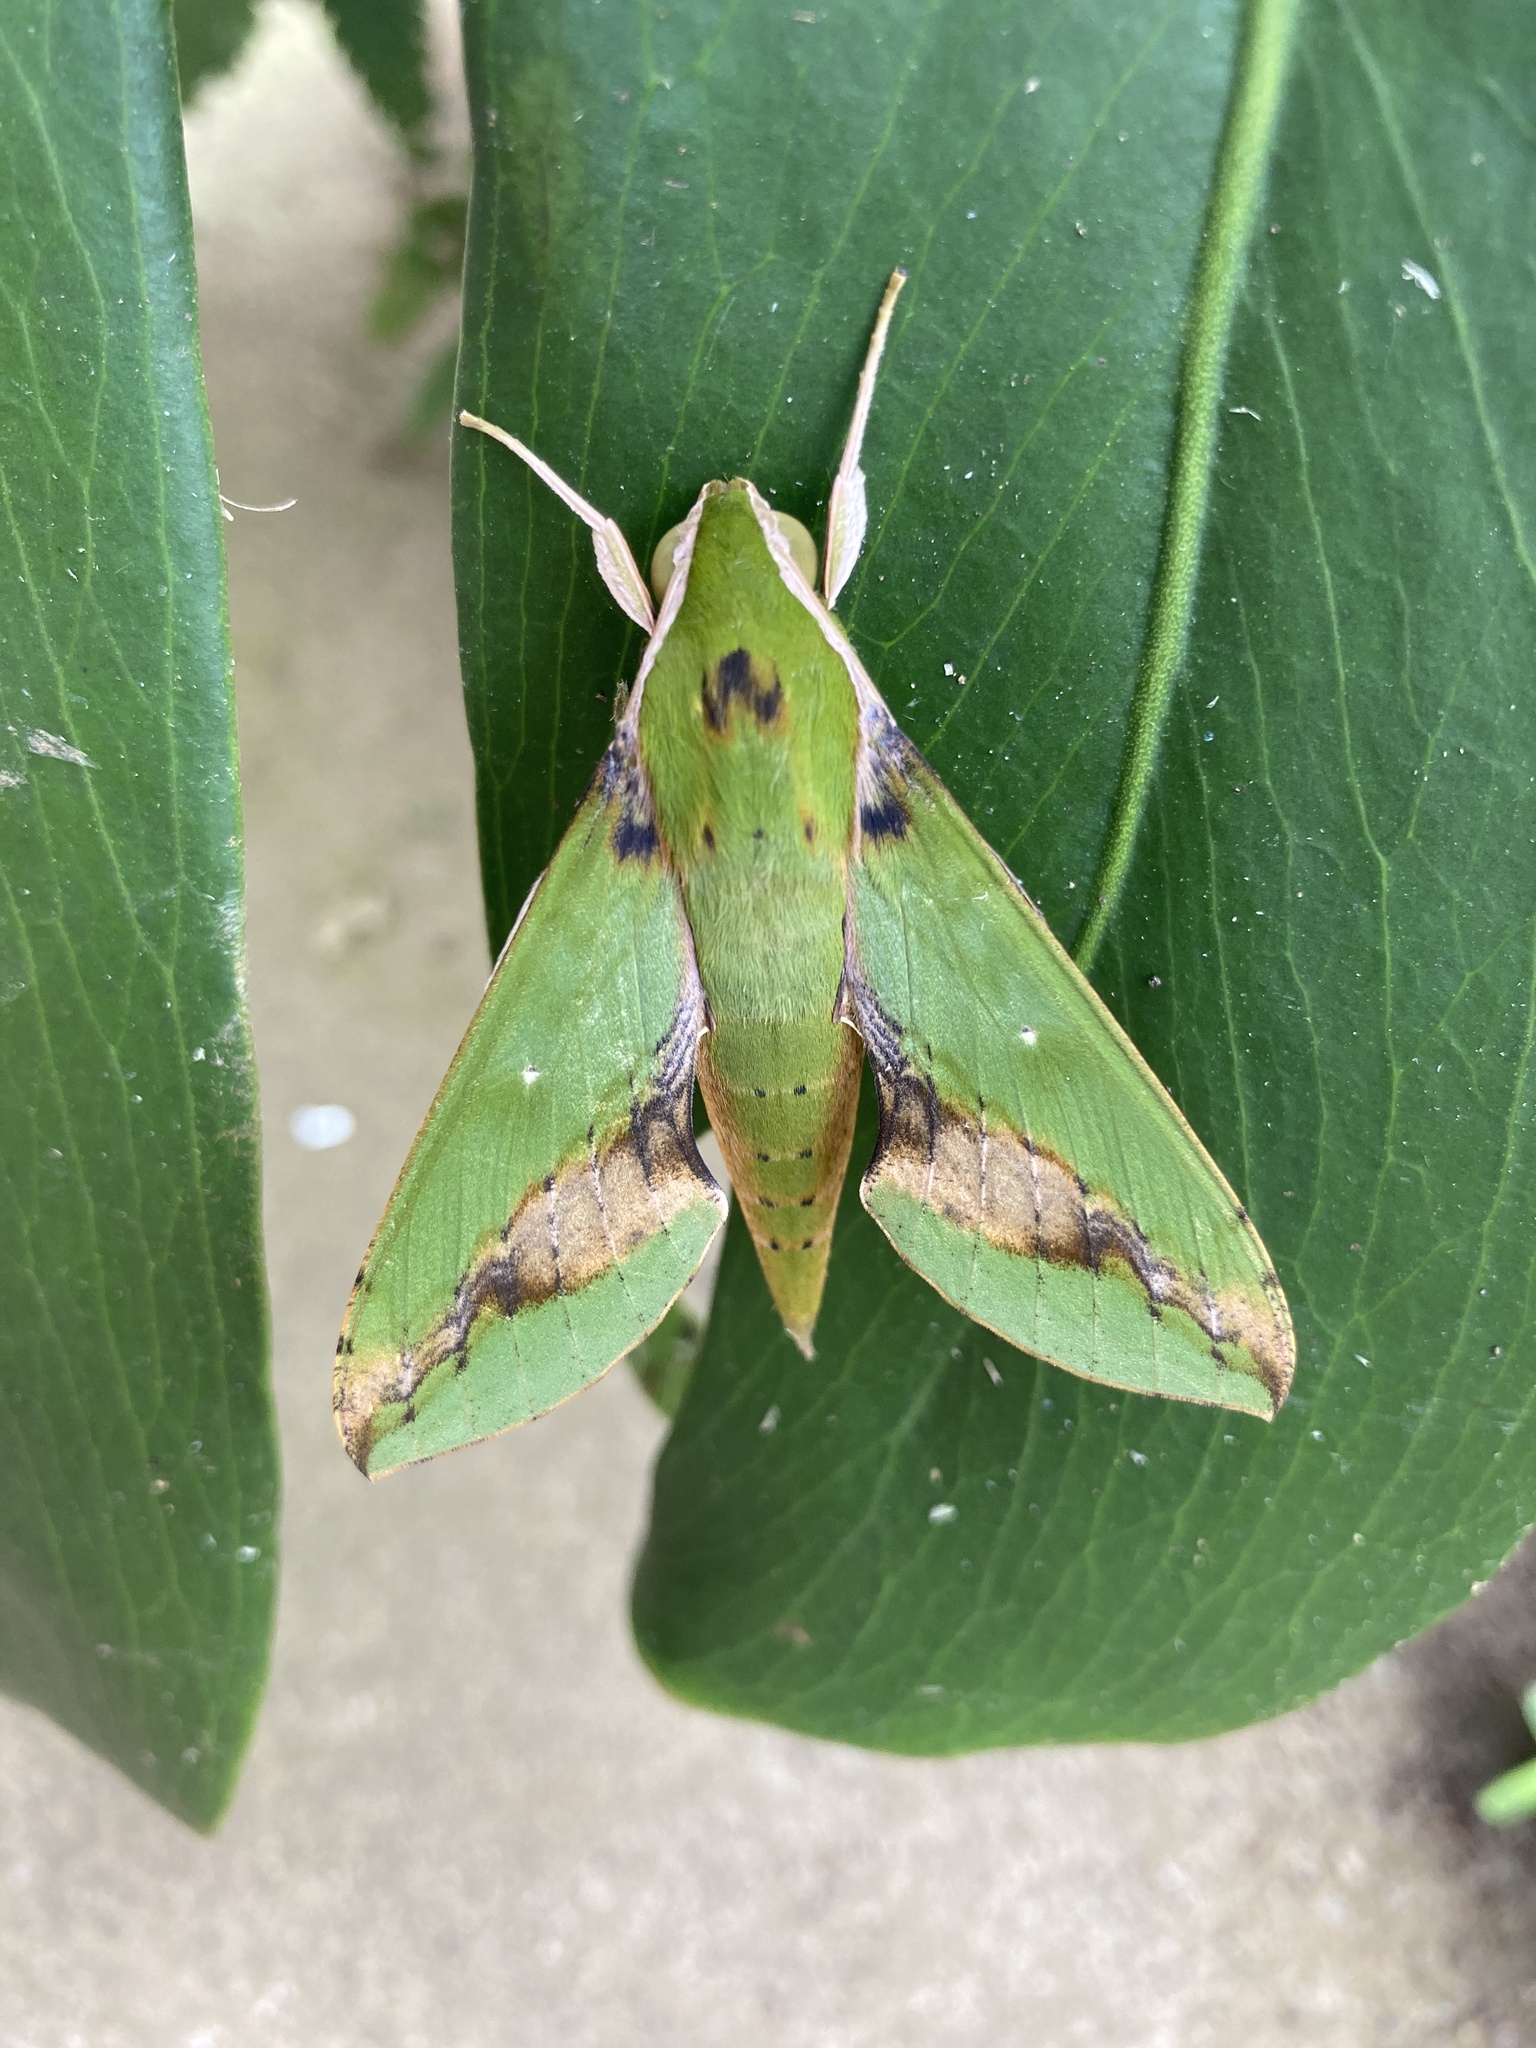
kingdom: Animalia
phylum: Arthropoda
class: Insecta
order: Lepidoptera
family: Sphingidae
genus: Xylophanes
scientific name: Xylophanes chiron
